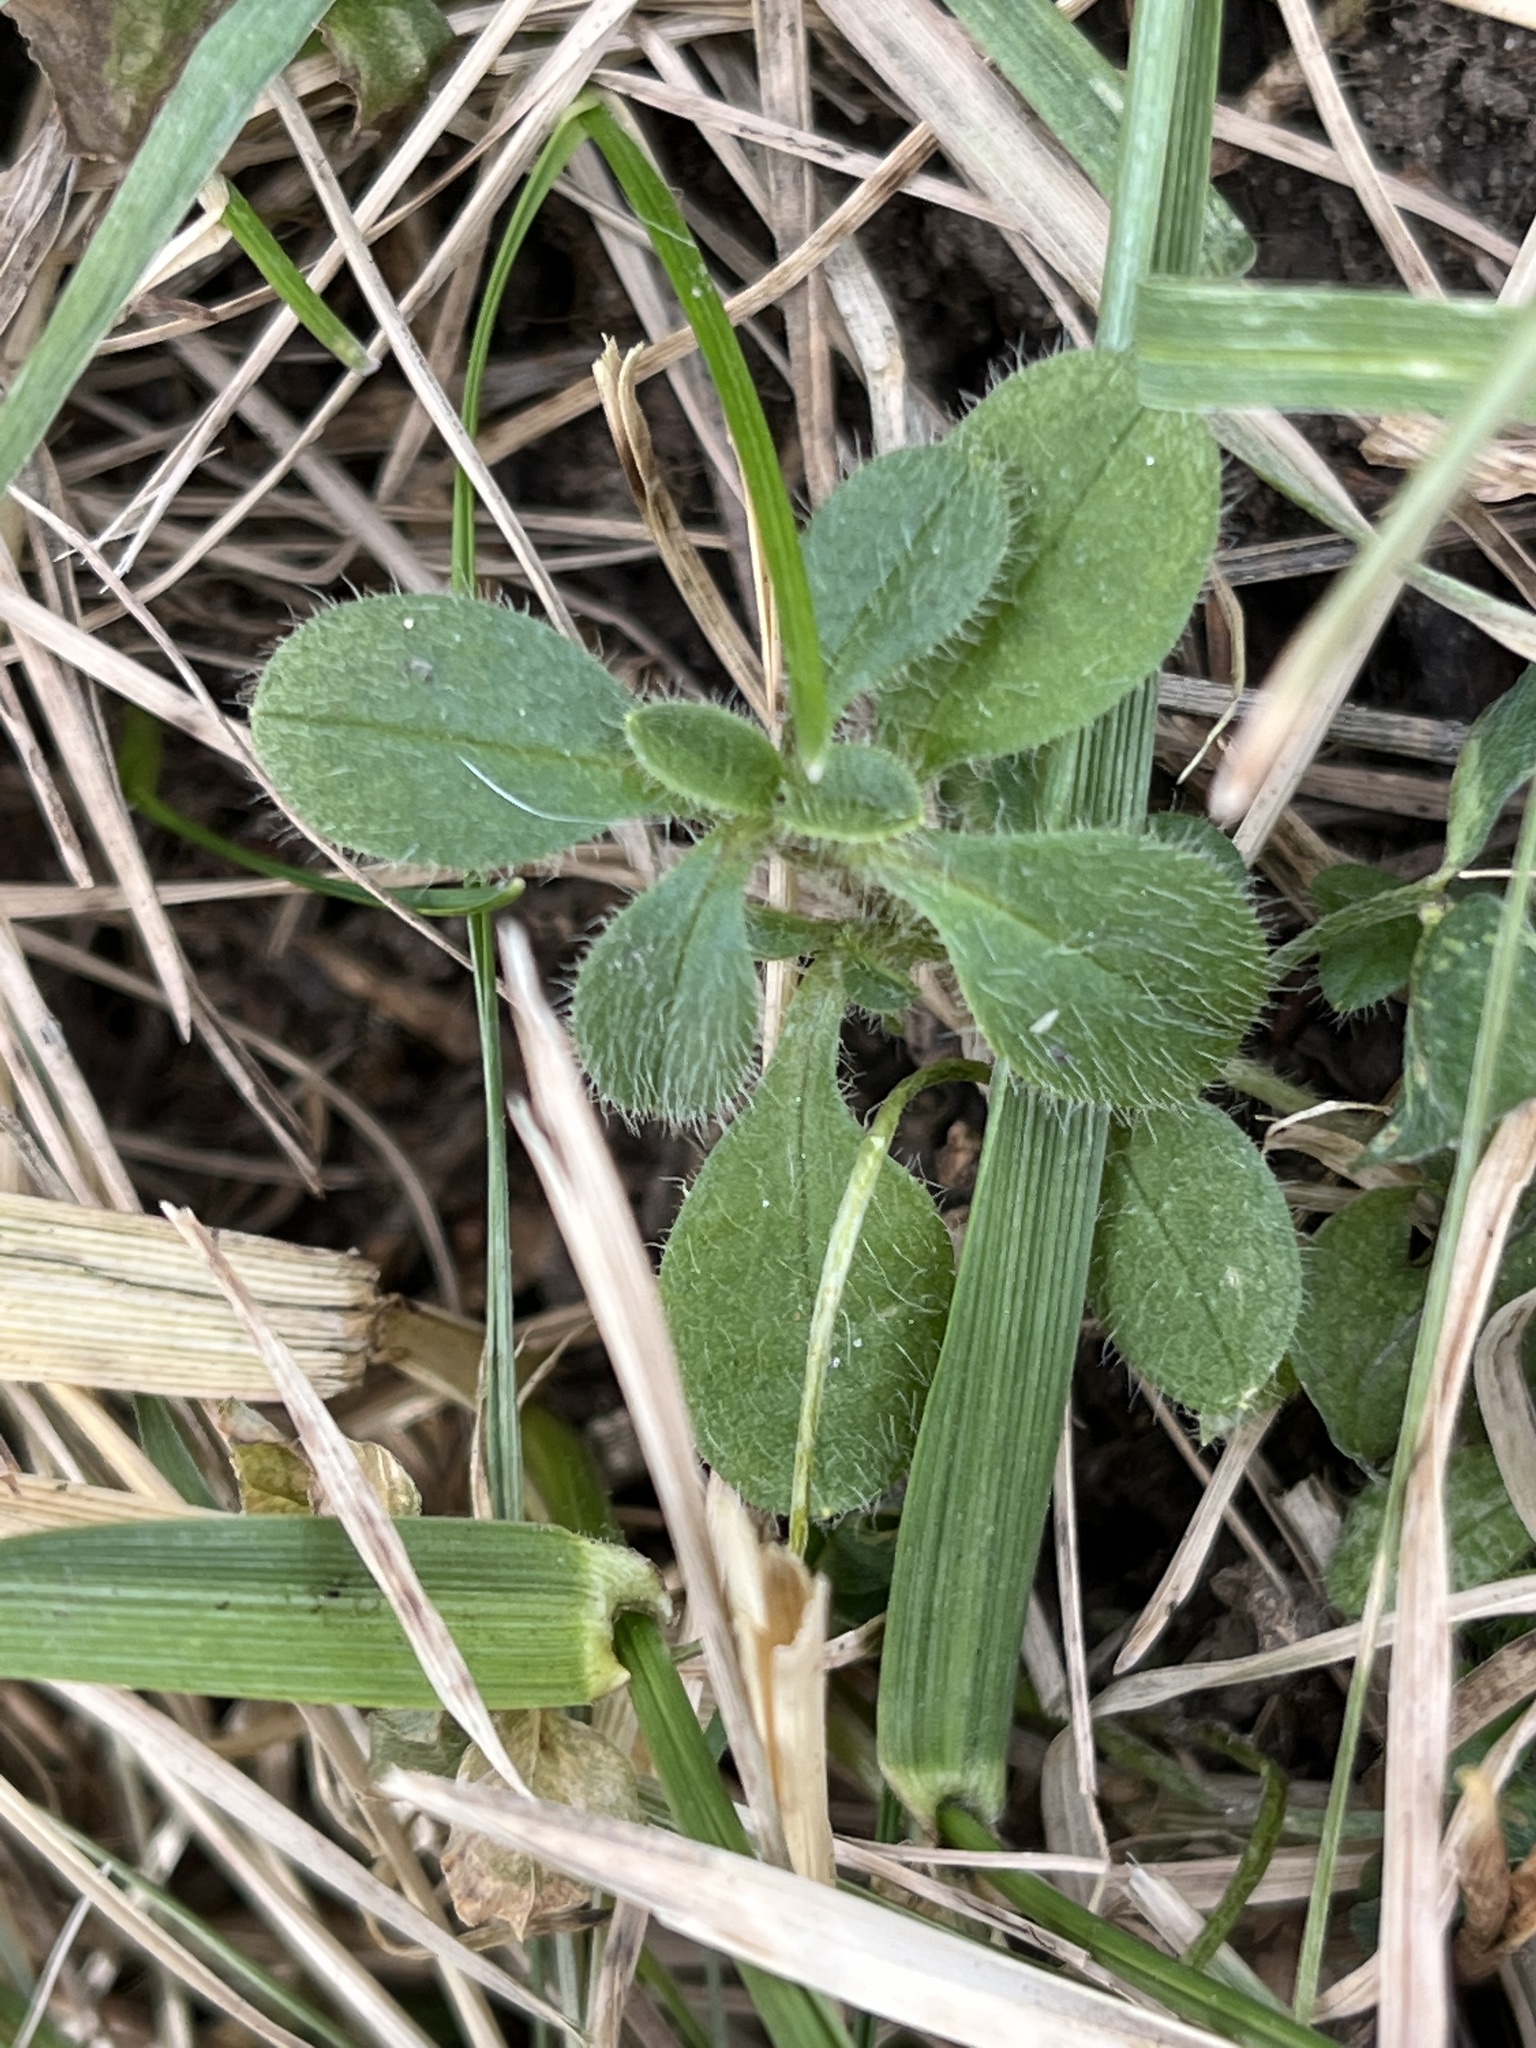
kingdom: Plantae
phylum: Tracheophyta
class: Magnoliopsida
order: Caryophyllales
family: Caryophyllaceae
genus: Cerastium
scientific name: Cerastium fontanum
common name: Common mouse-ear
